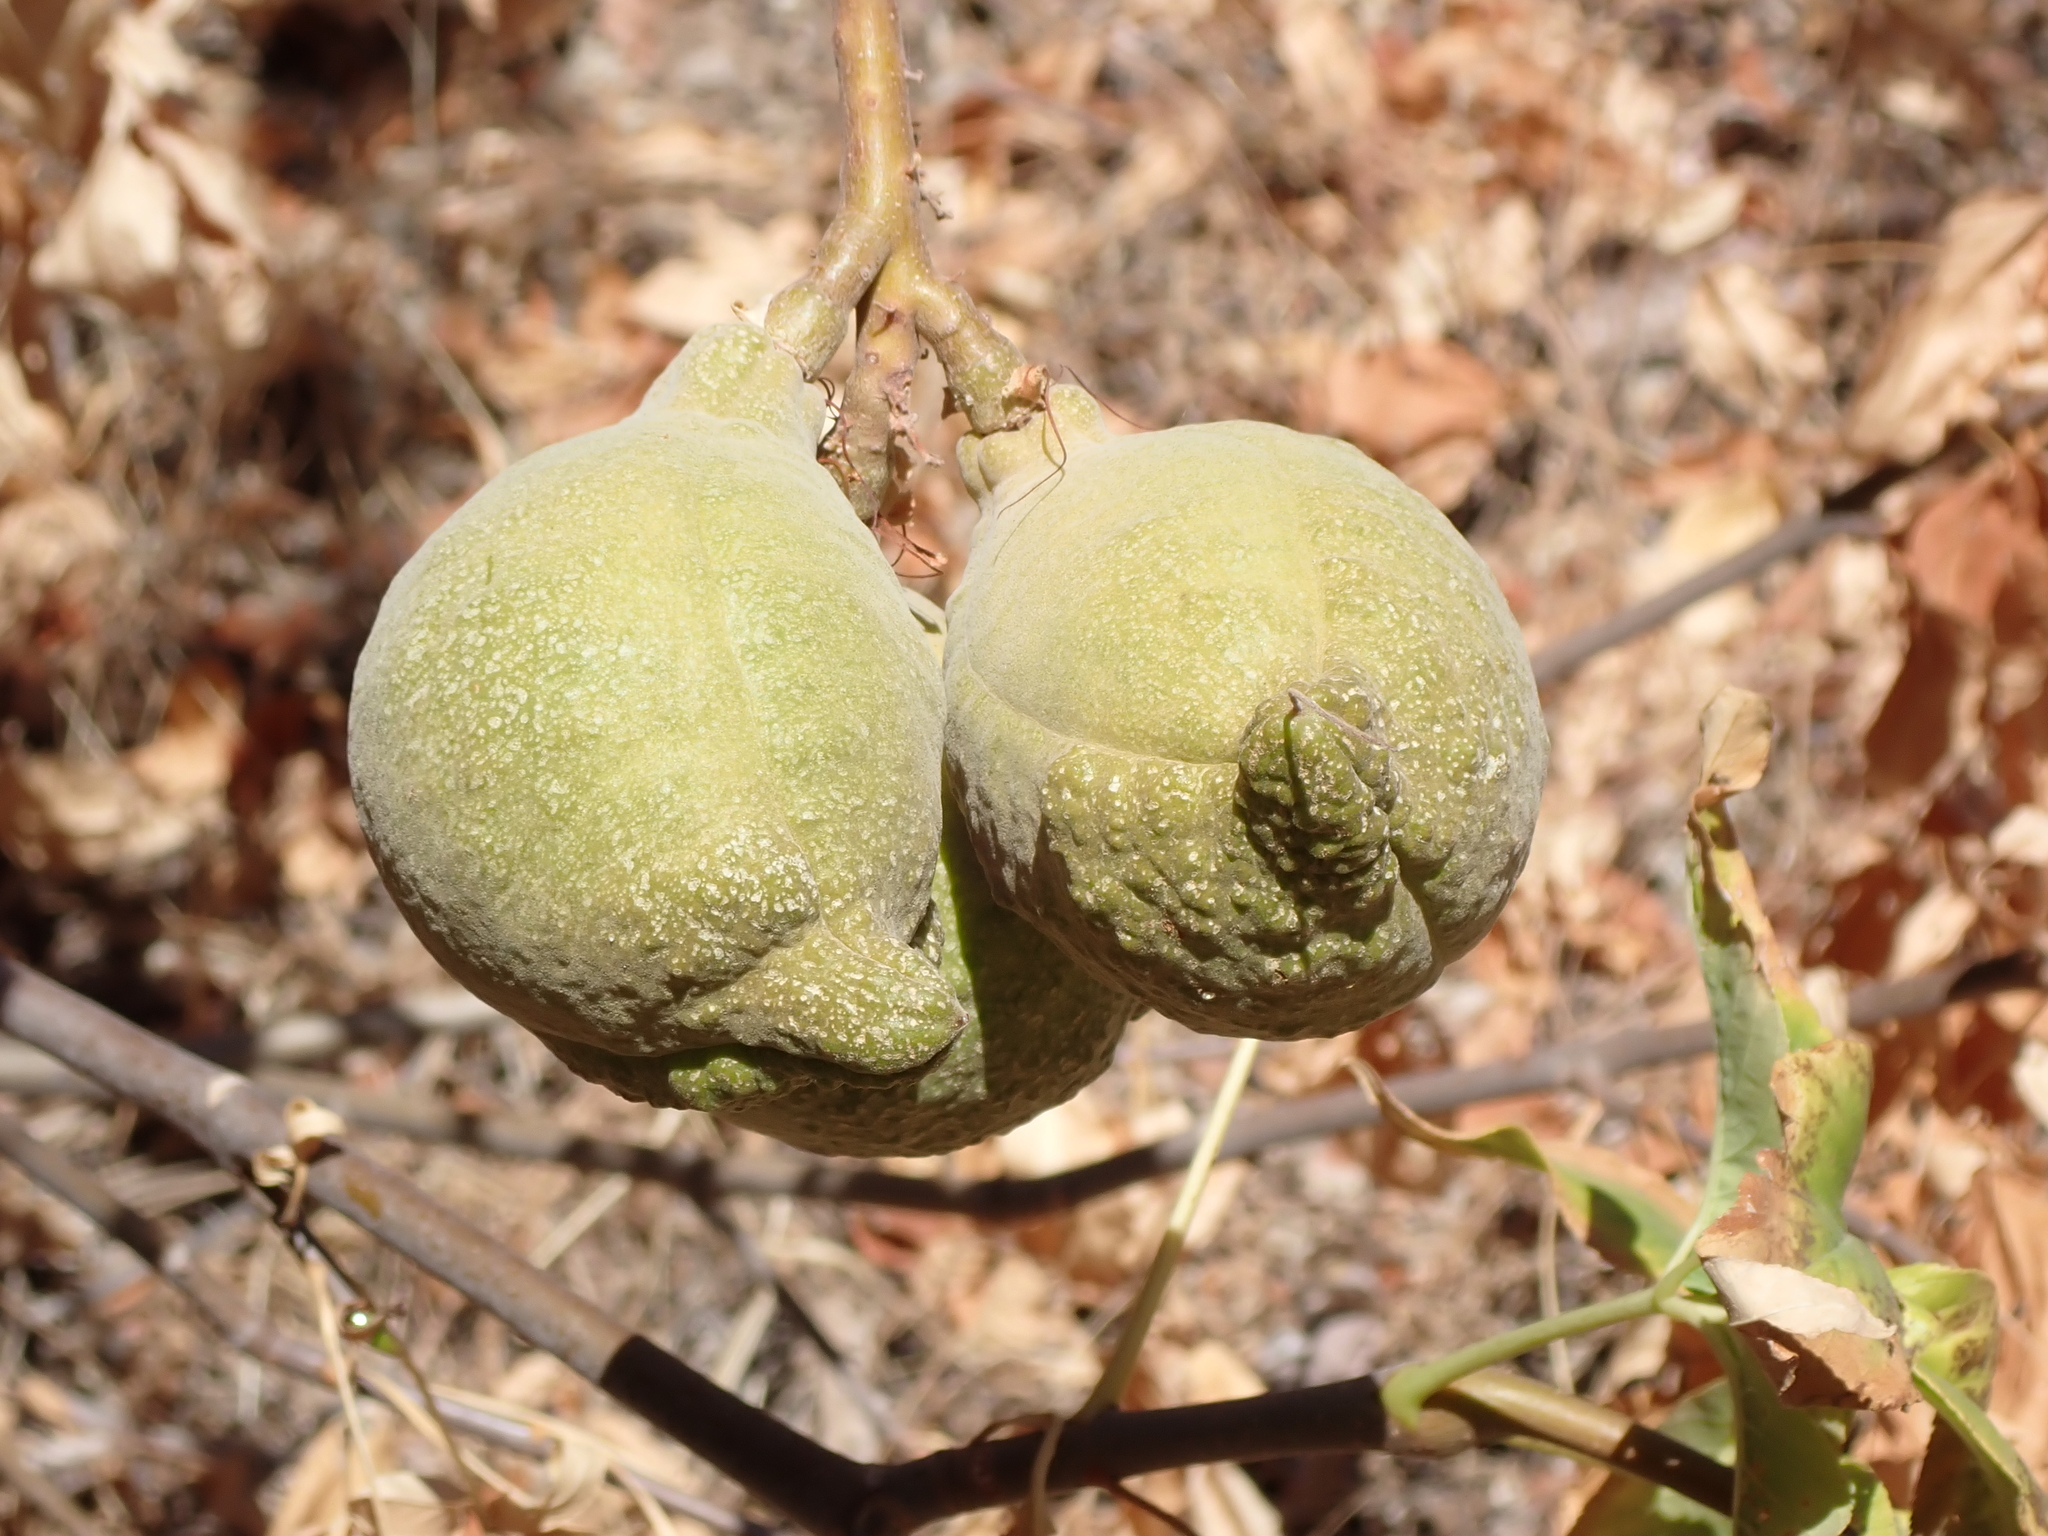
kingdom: Plantae
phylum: Tracheophyta
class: Magnoliopsida
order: Sapindales
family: Sapindaceae
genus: Aesculus
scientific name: Aesculus californica
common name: California buckeye
